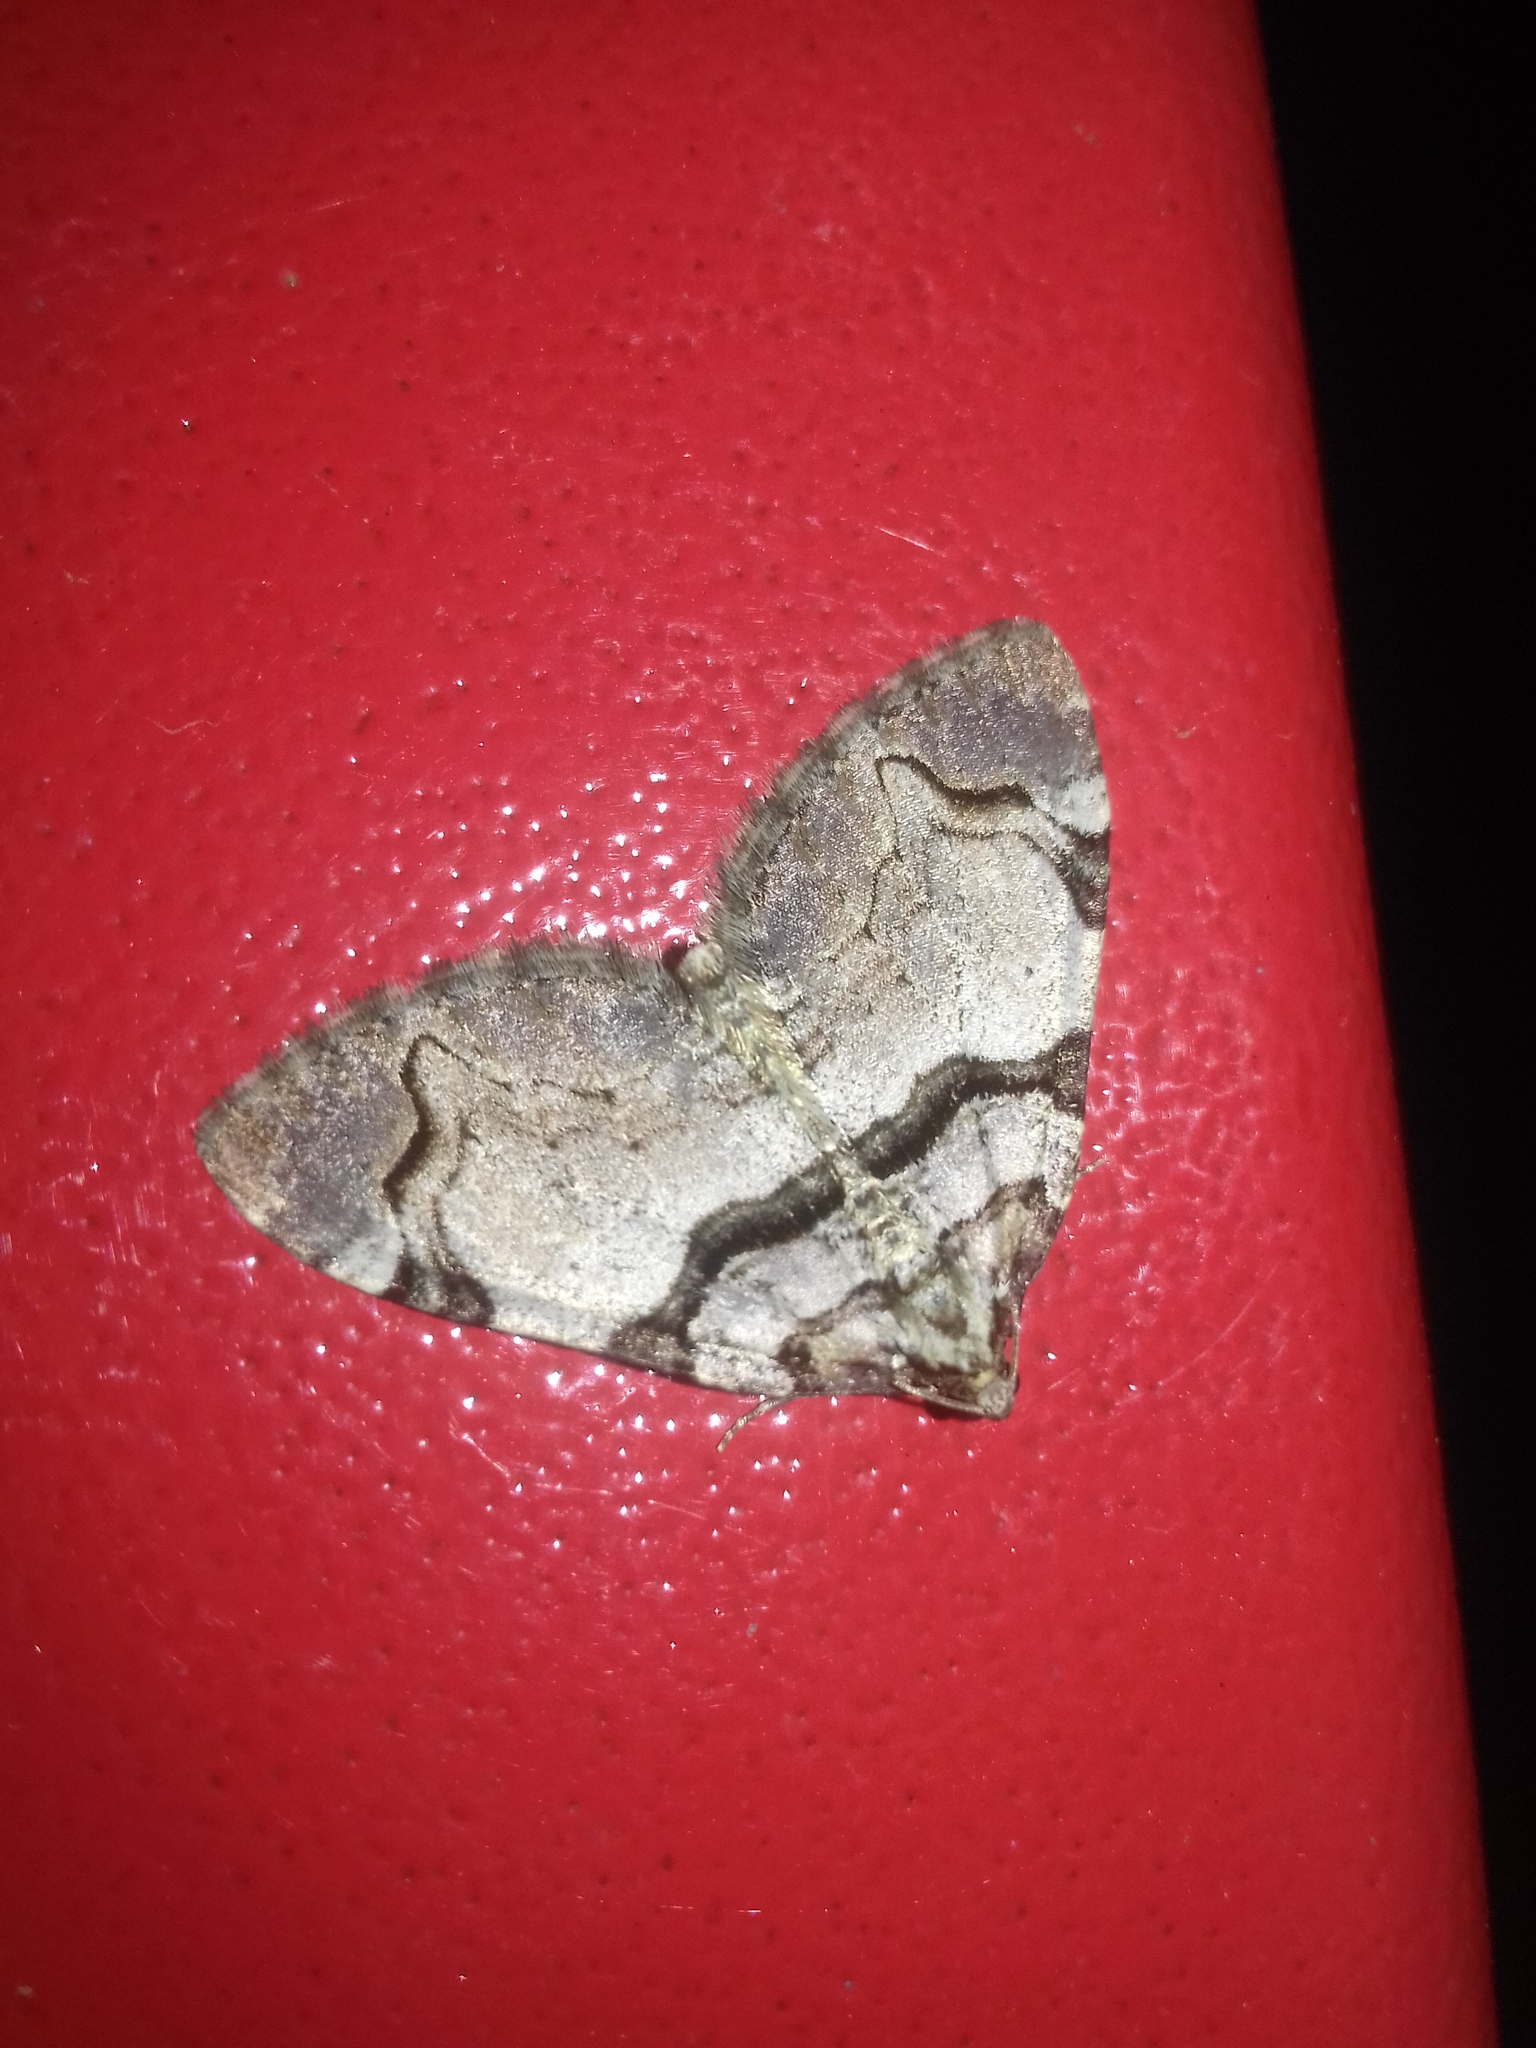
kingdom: Animalia
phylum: Arthropoda
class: Insecta
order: Lepidoptera
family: Geometridae
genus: Anticlea
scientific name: Anticlea derivata
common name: Streamer
